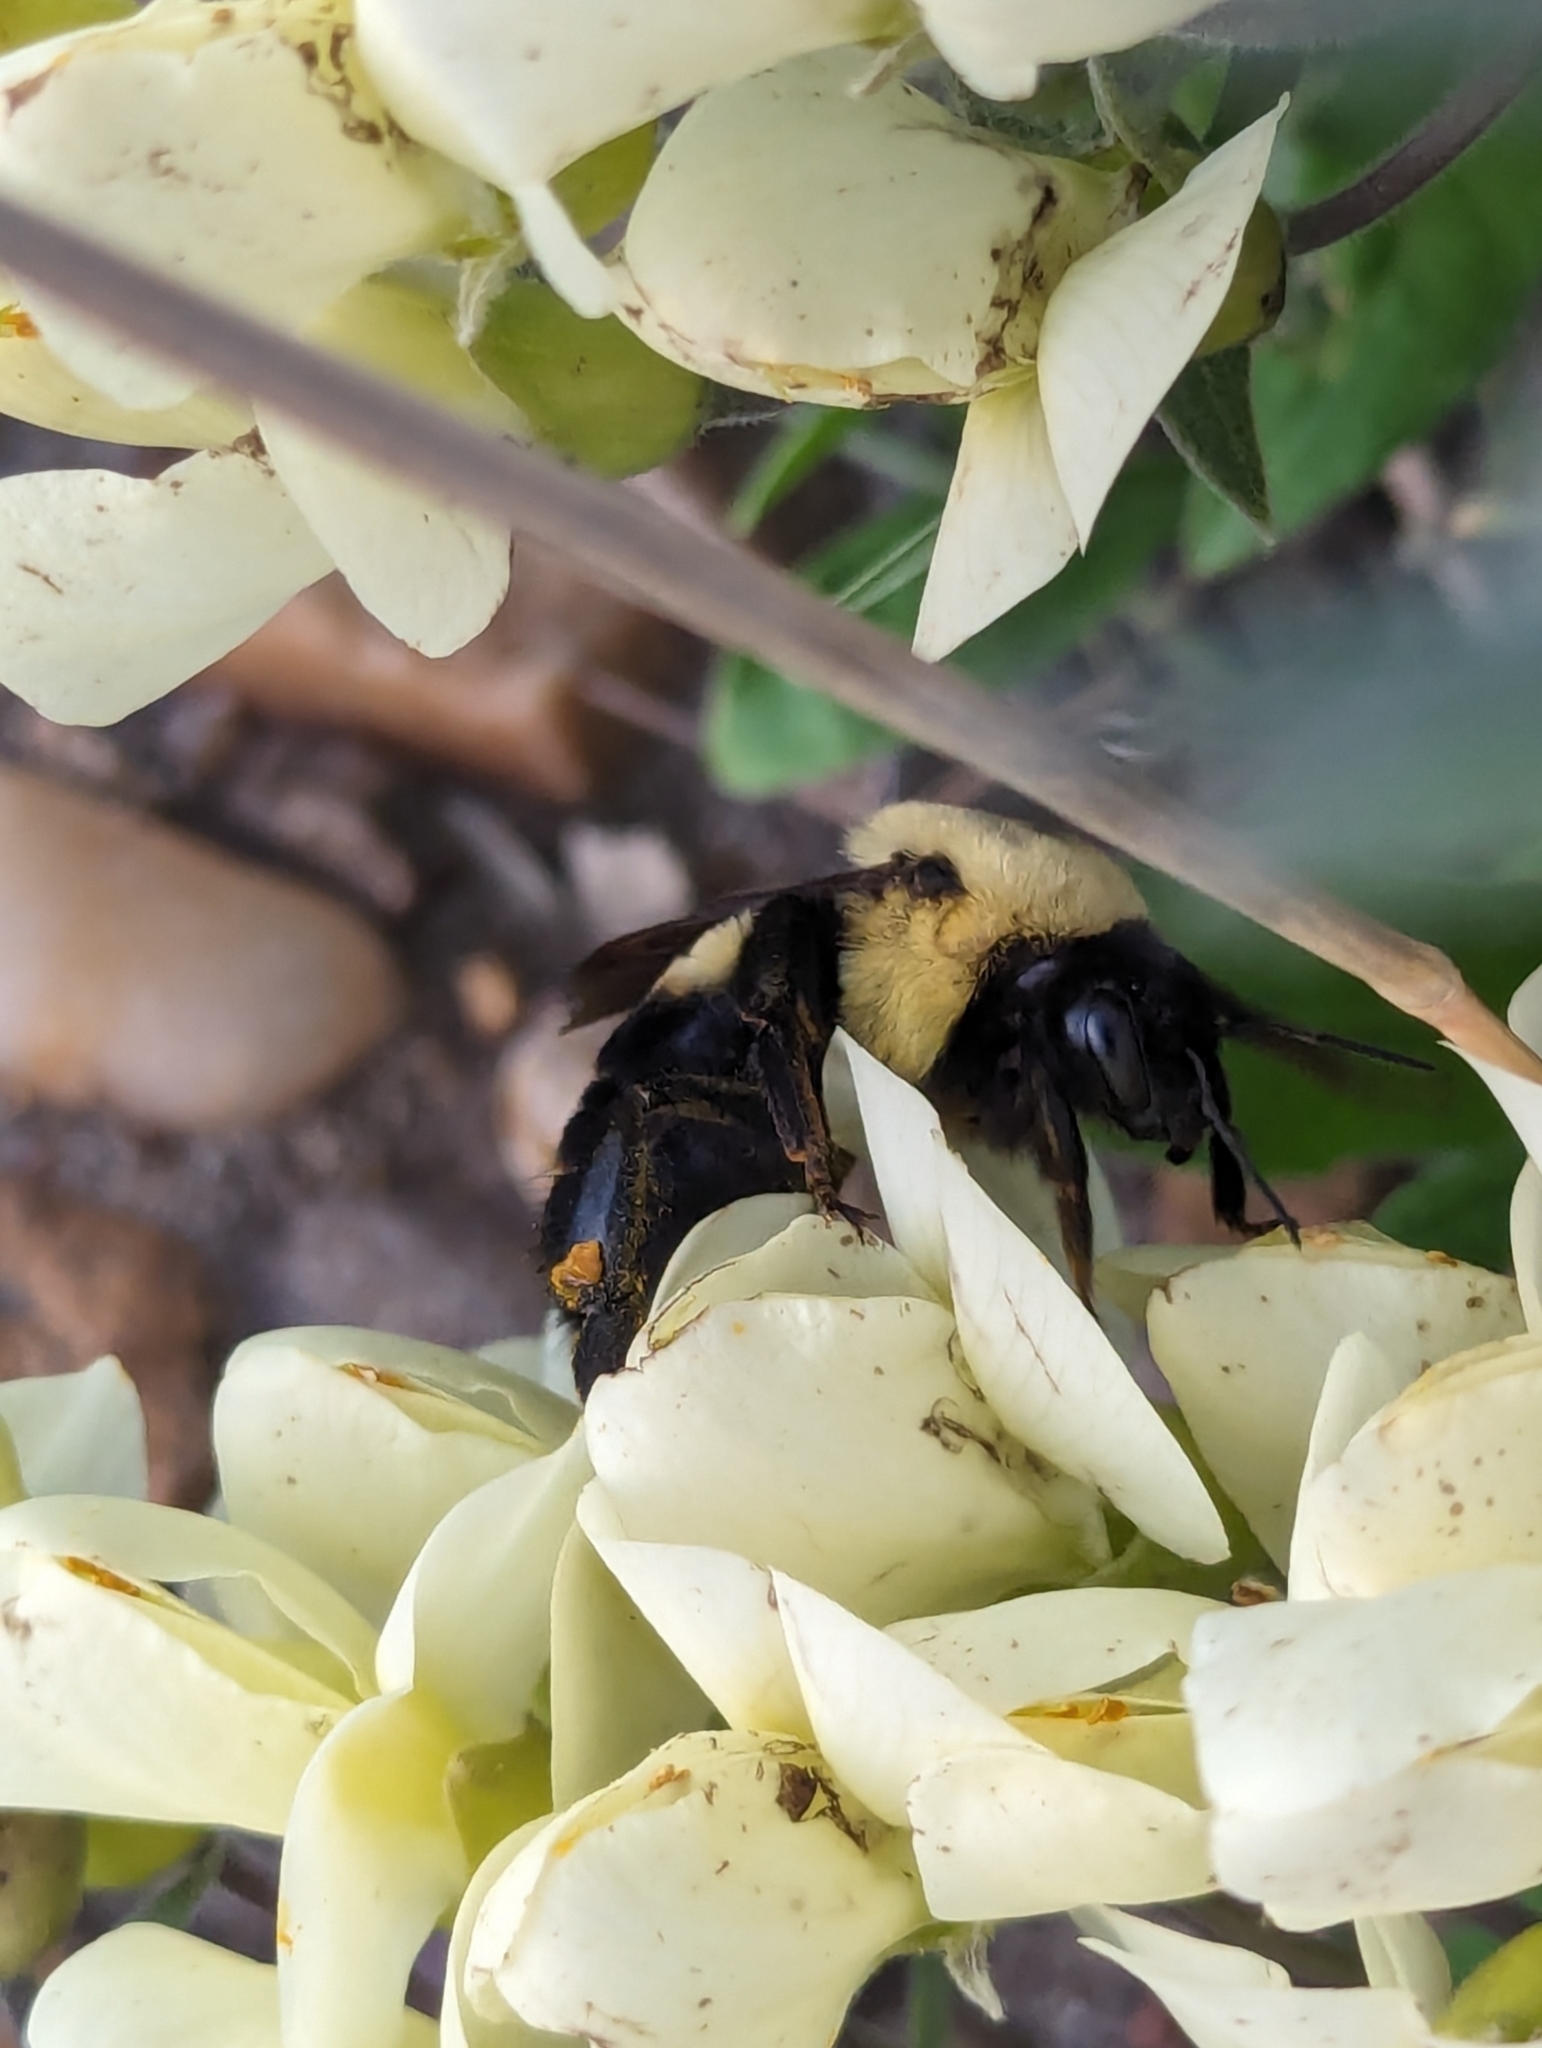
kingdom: Animalia
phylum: Arthropoda
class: Insecta
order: Hymenoptera
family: Apidae
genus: Bombus
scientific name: Bombus griseocollis
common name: Brown-belted bumble bee
